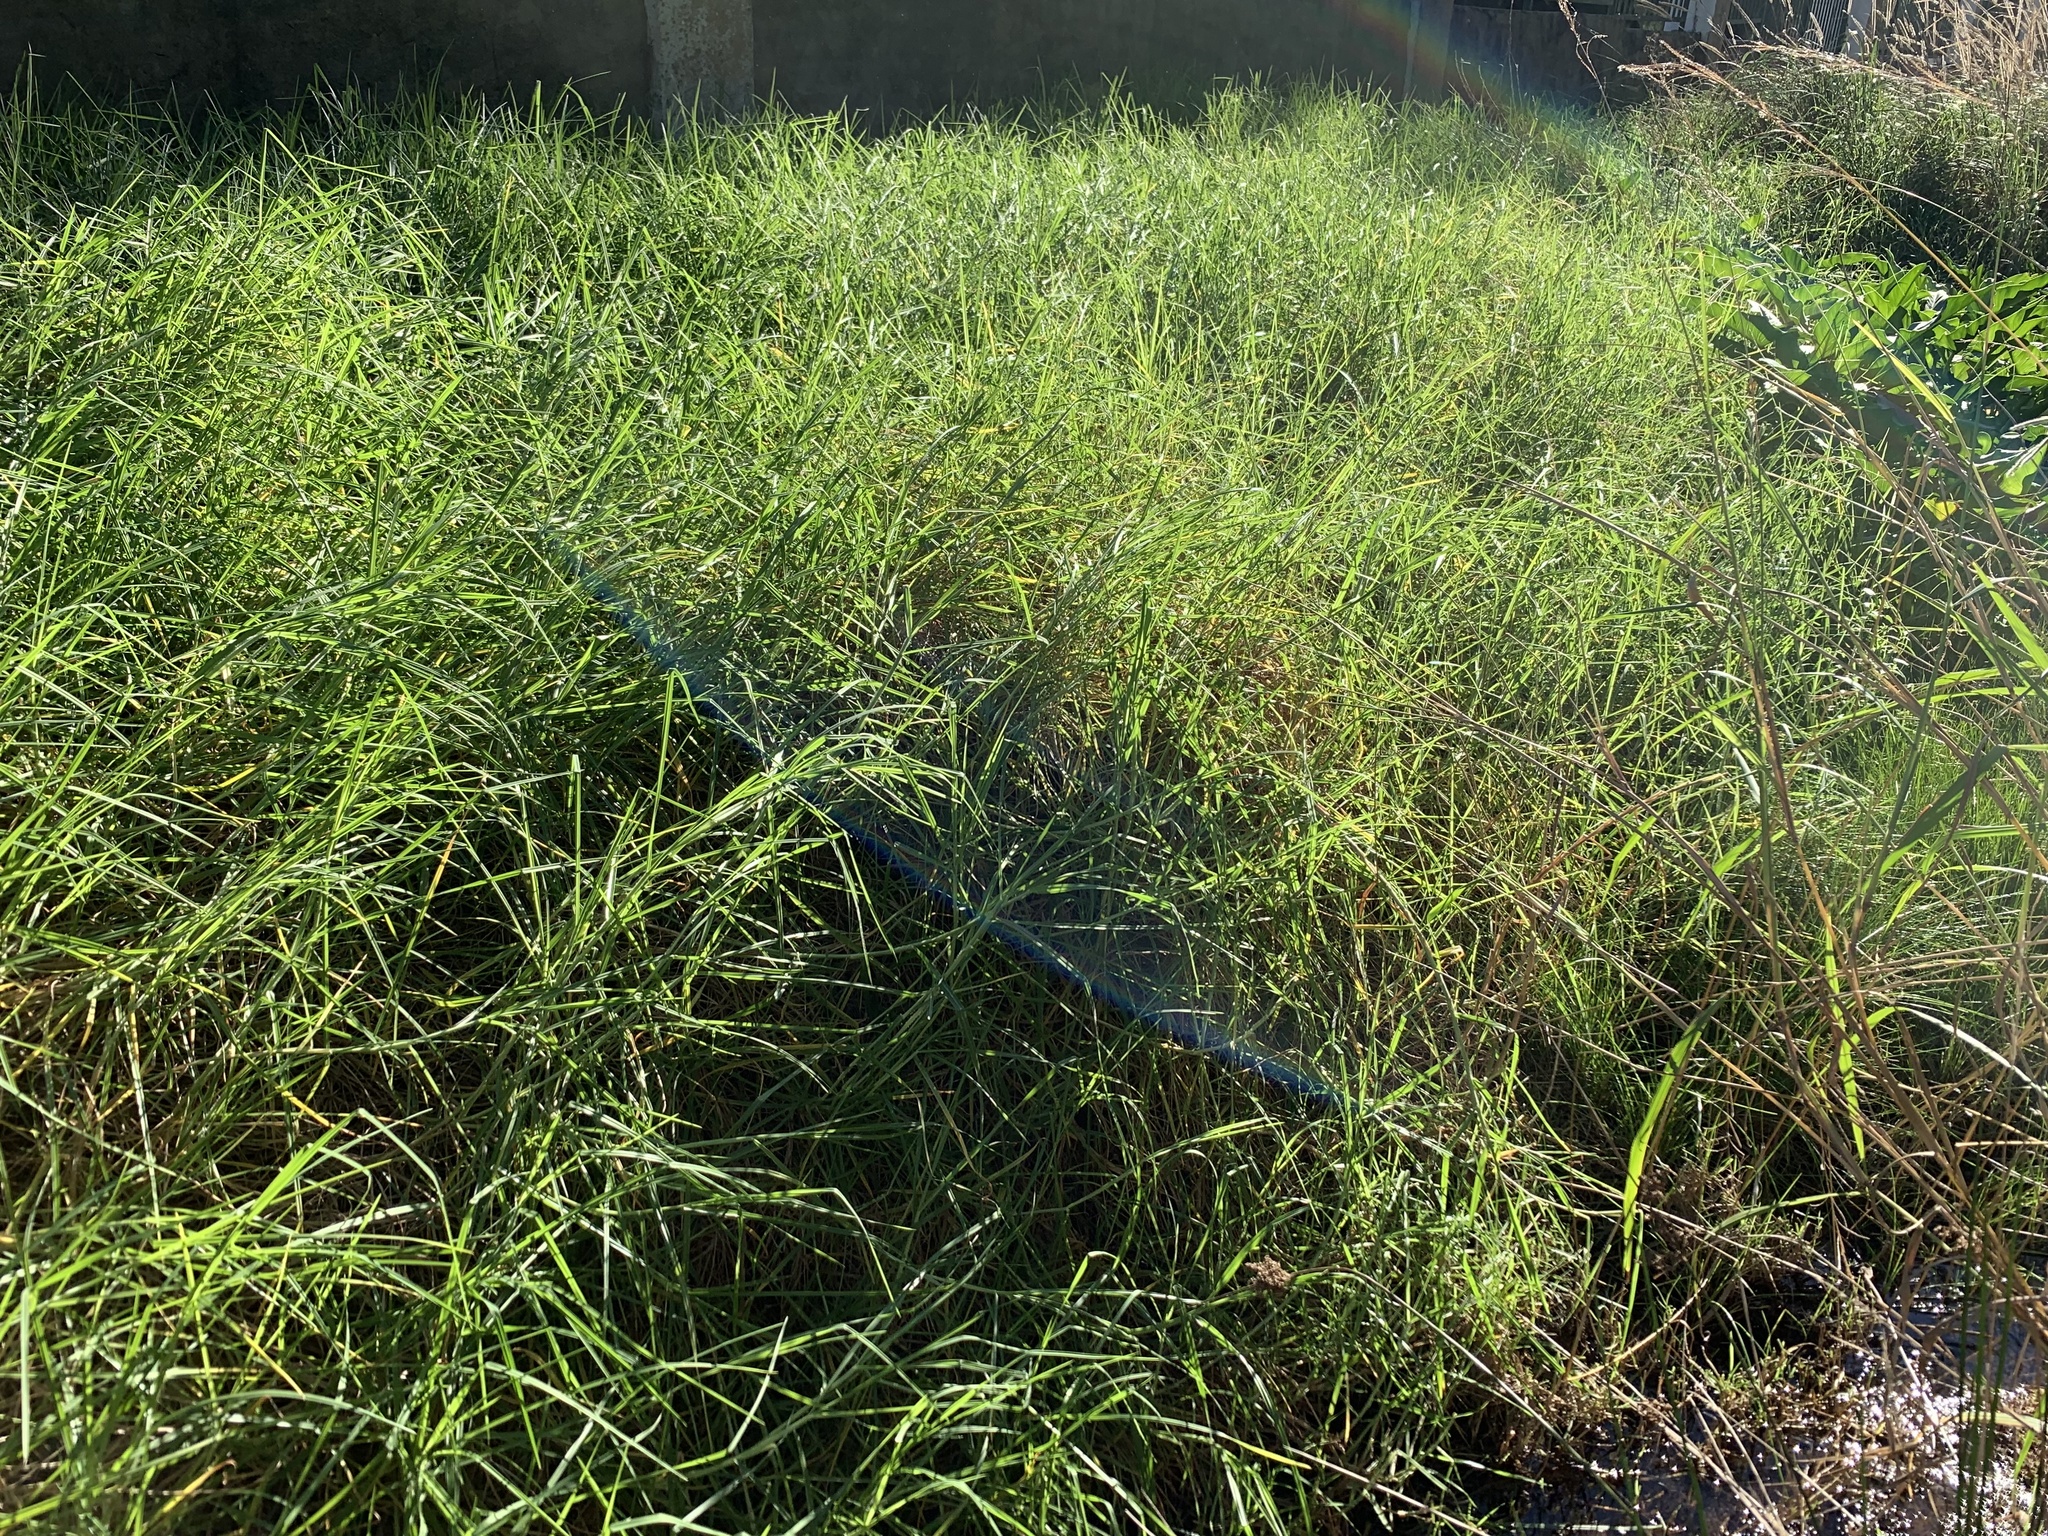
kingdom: Plantae
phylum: Tracheophyta
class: Liliopsida
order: Poales
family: Poaceae
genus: Cenchrus
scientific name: Cenchrus clandestinus
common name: Kikuyugrass
